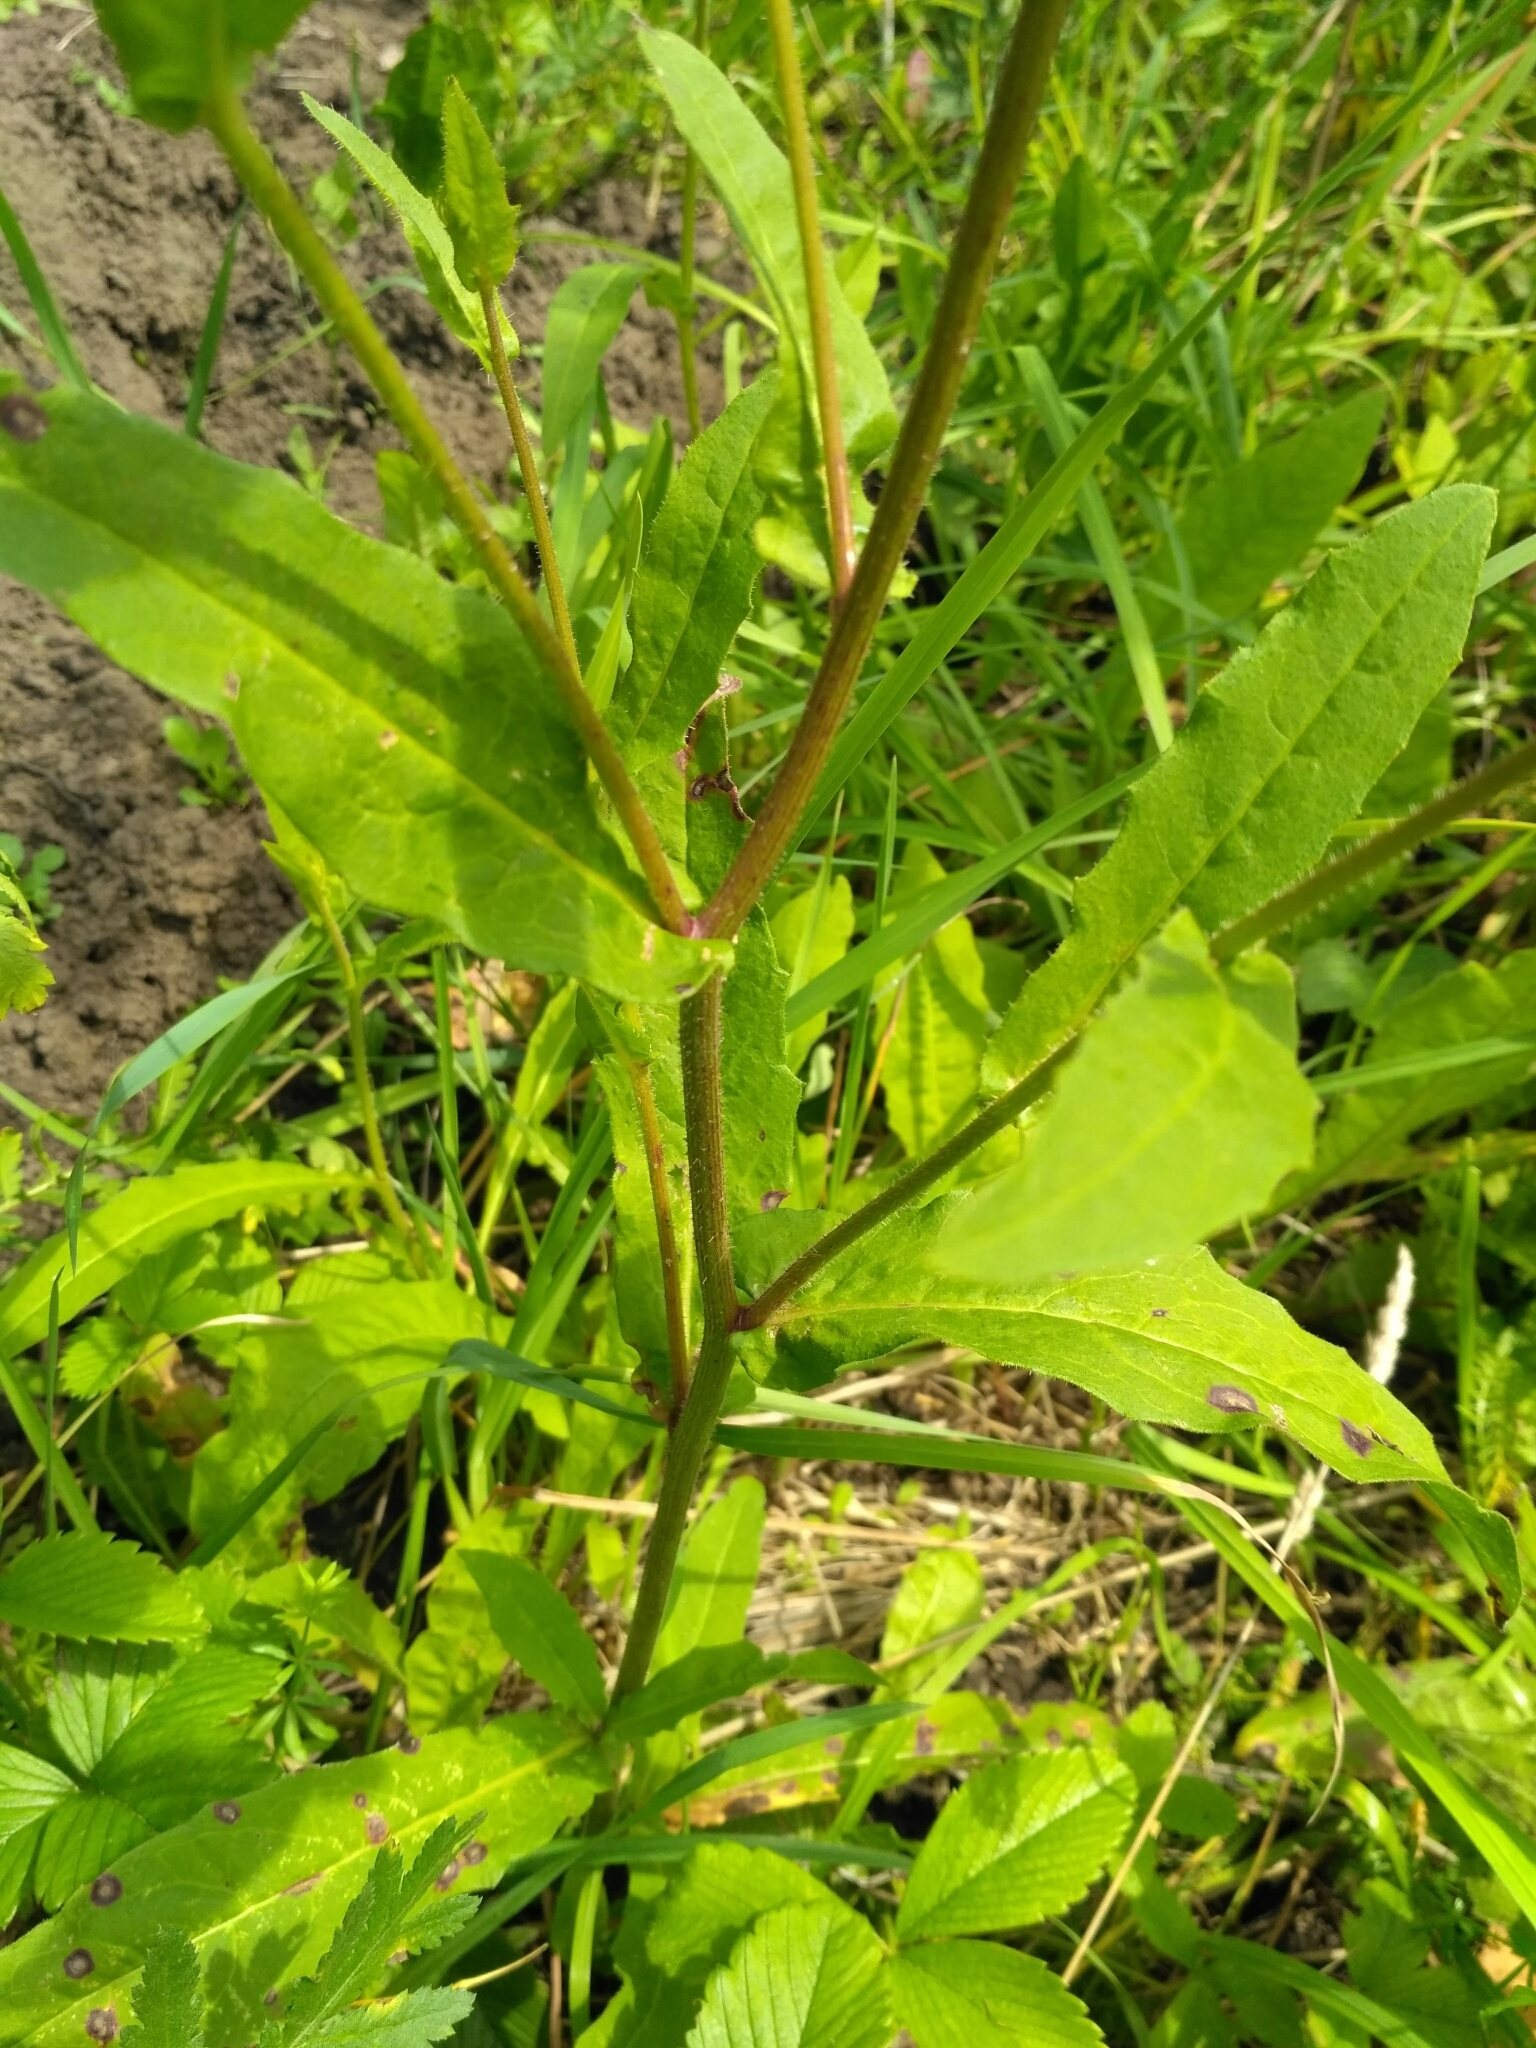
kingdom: Plantae
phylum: Tracheophyta
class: Magnoliopsida
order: Asterales
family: Asteraceae
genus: Picris
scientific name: Picris hieracioides
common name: Hawkweed oxtongue
